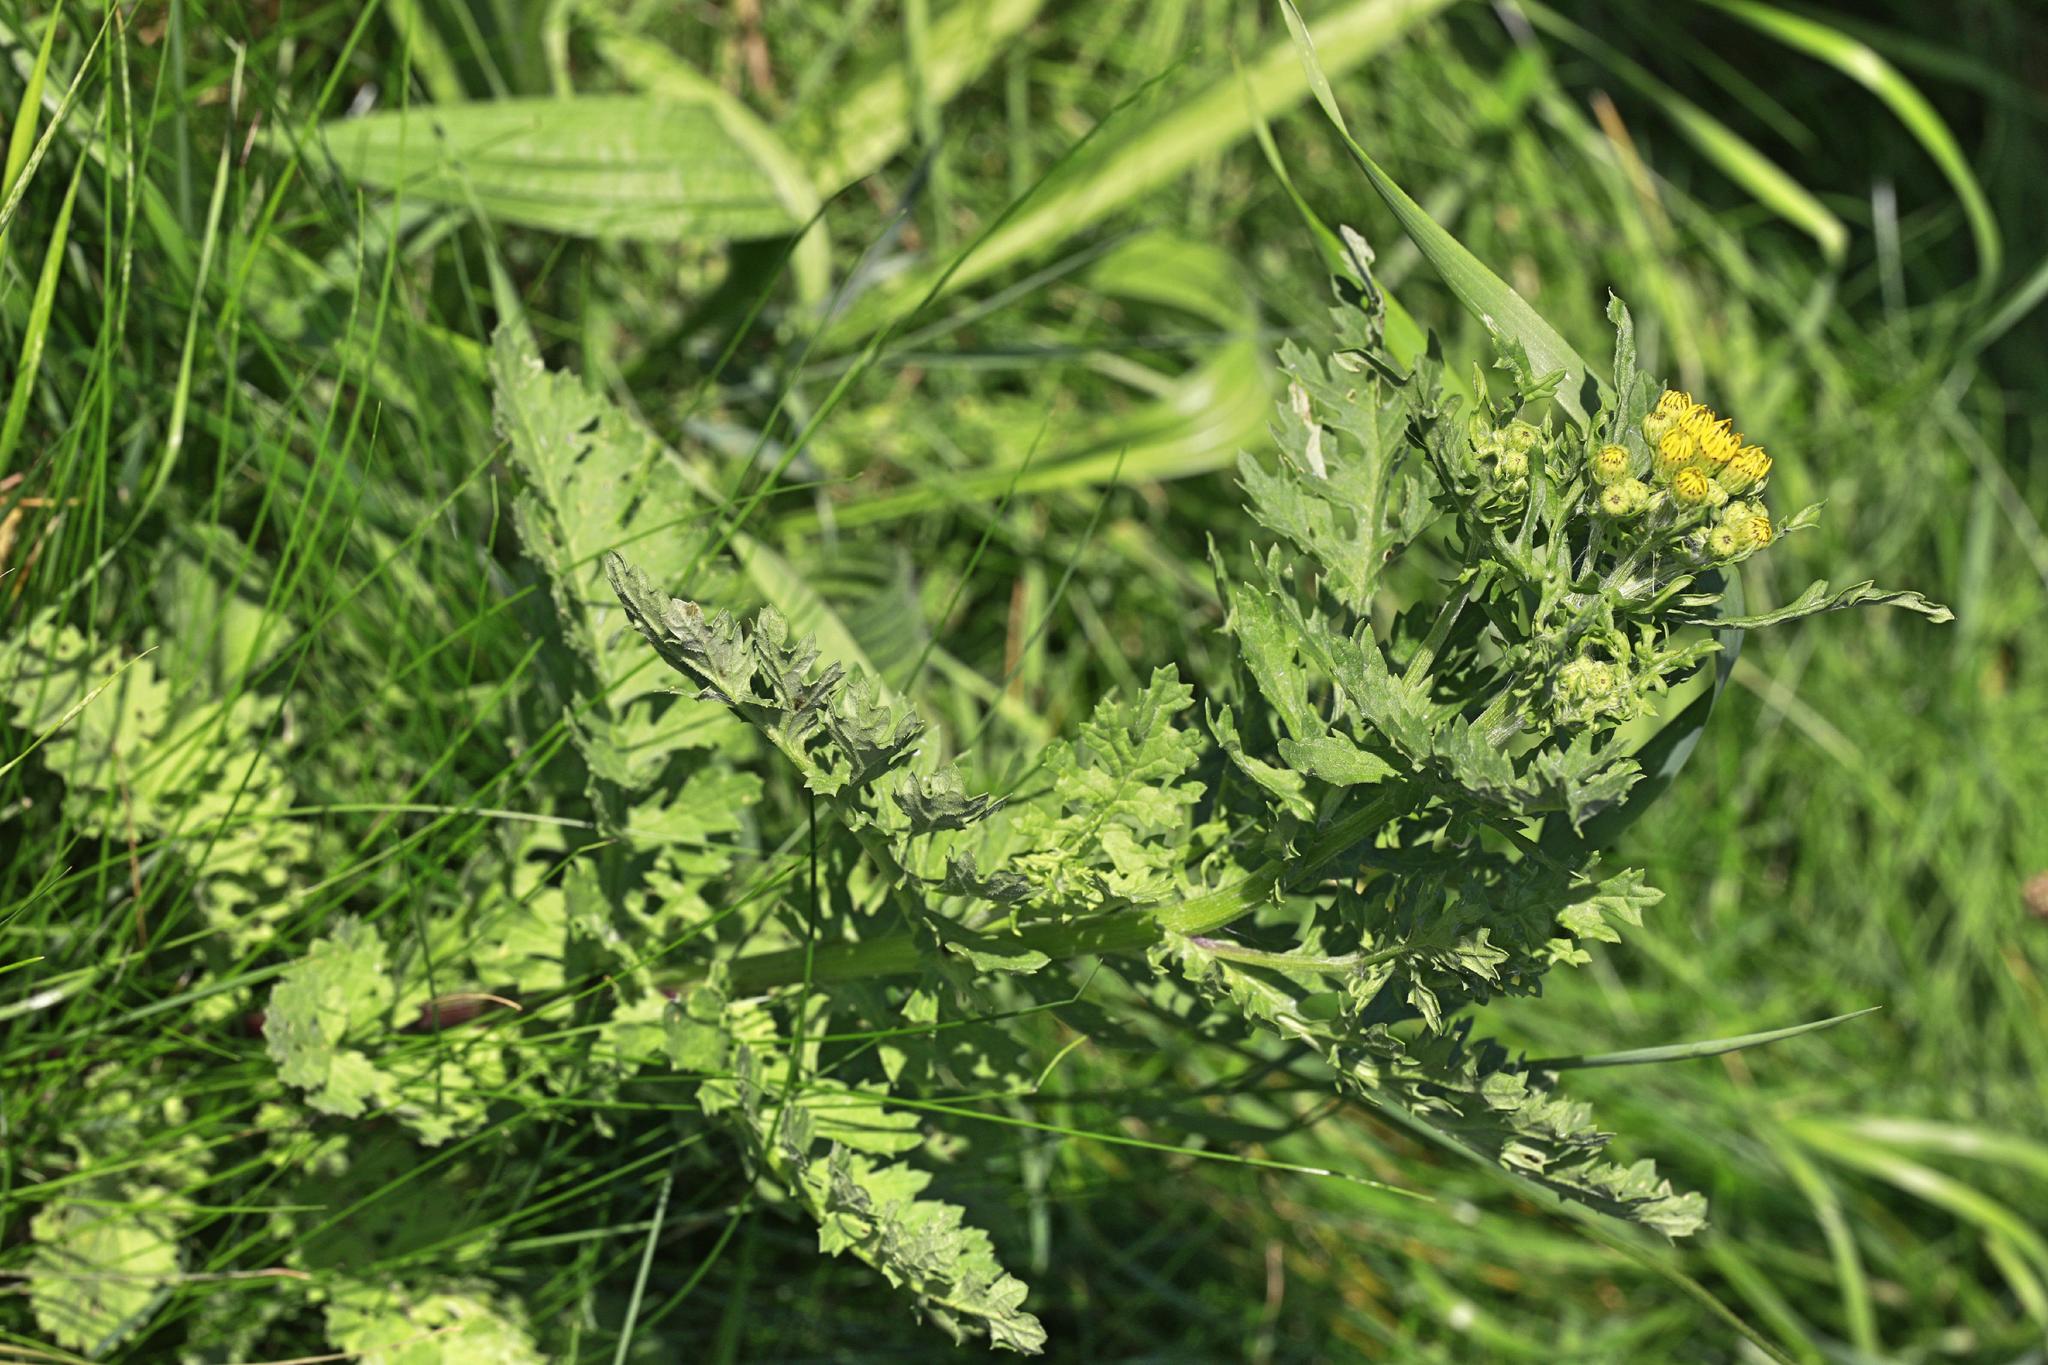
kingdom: Plantae
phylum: Tracheophyta
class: Magnoliopsida
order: Asterales
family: Asteraceae
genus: Jacobaea
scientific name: Jacobaea vulgaris
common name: Stinking willie
